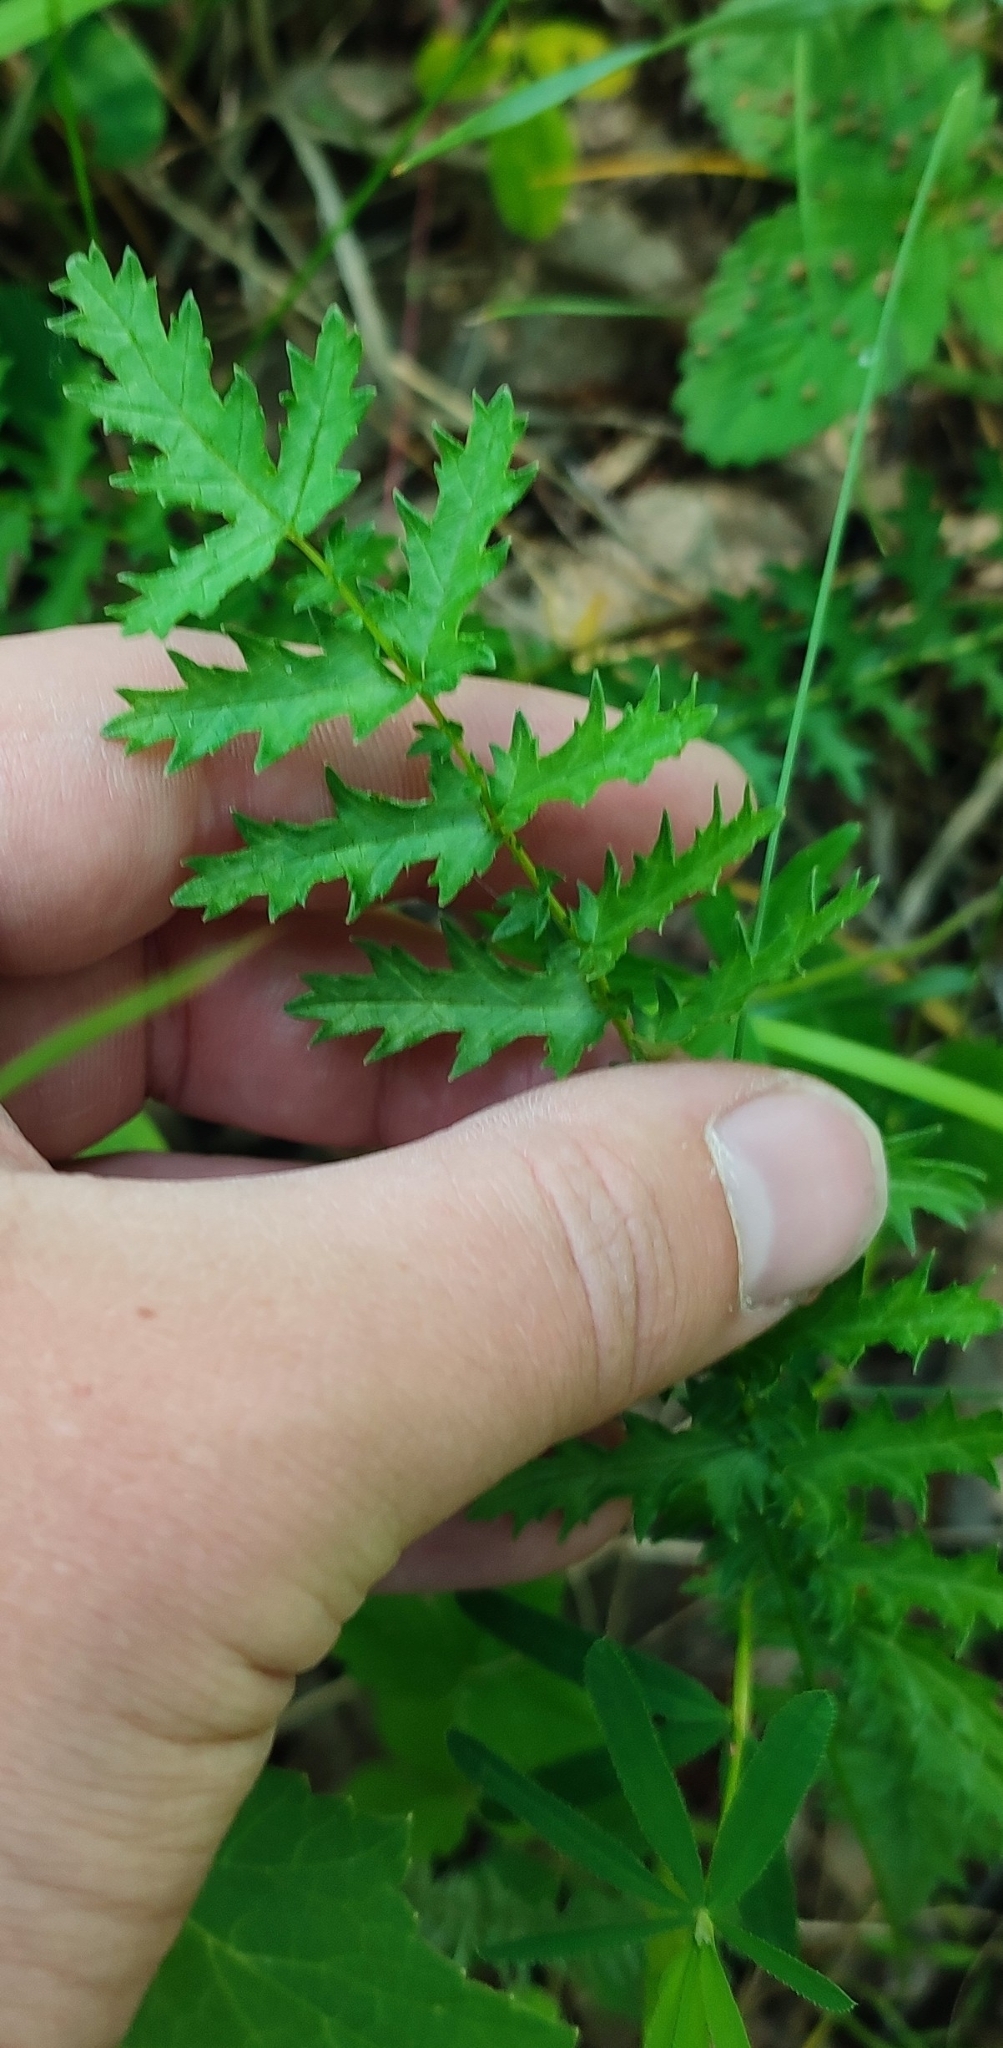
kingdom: Plantae
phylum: Tracheophyta
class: Magnoliopsida
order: Rosales
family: Rosaceae
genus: Filipendula
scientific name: Filipendula vulgaris
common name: Dropwort
